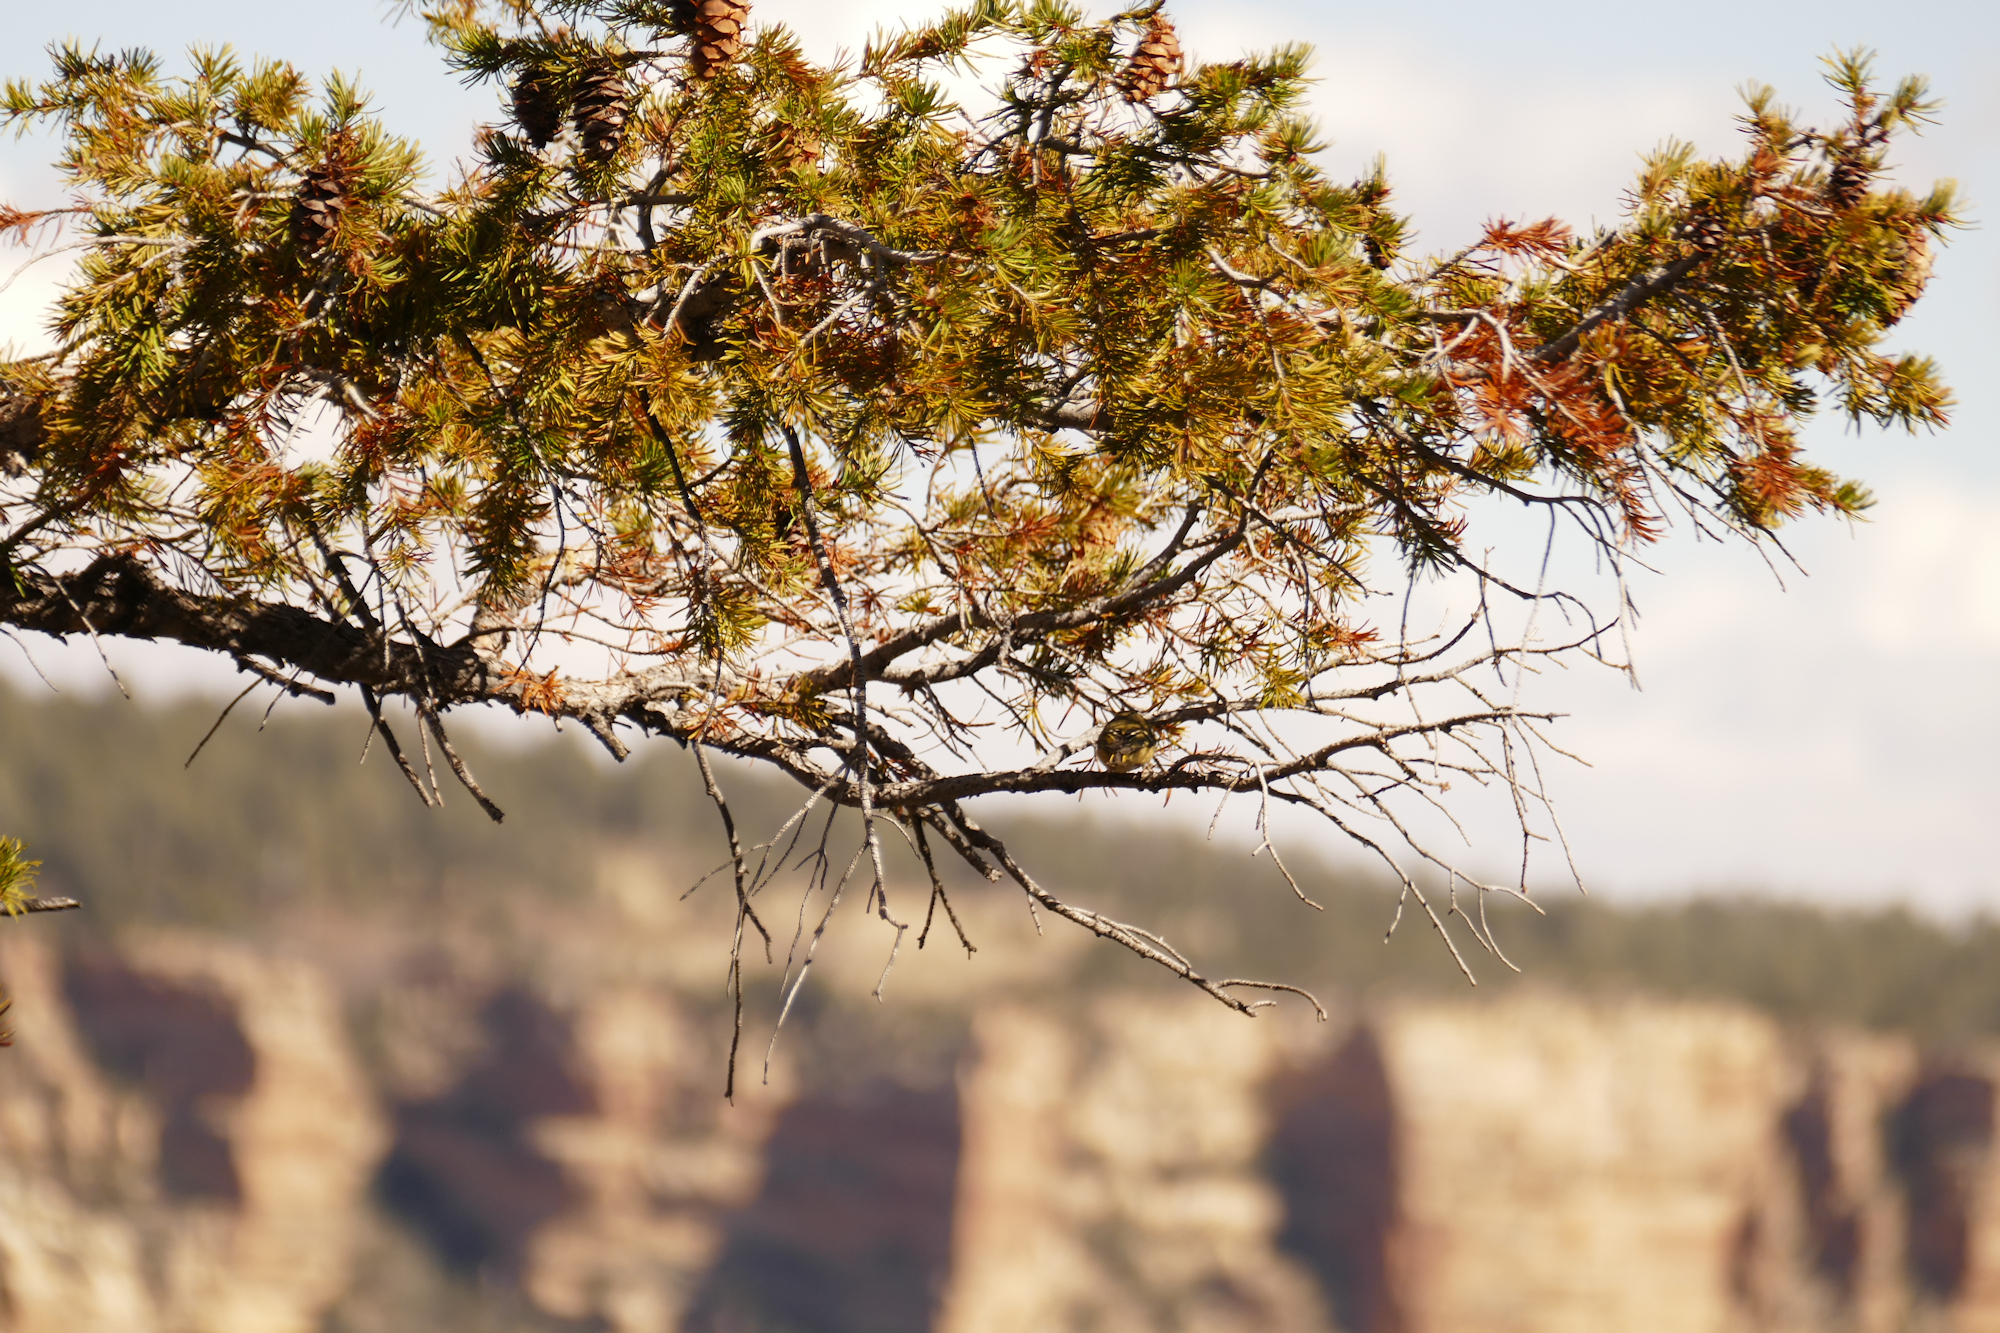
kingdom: Plantae
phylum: Tracheophyta
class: Pinopsida
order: Pinales
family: Pinaceae
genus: Pseudotsuga
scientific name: Pseudotsuga menziesii
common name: Douglas fir
